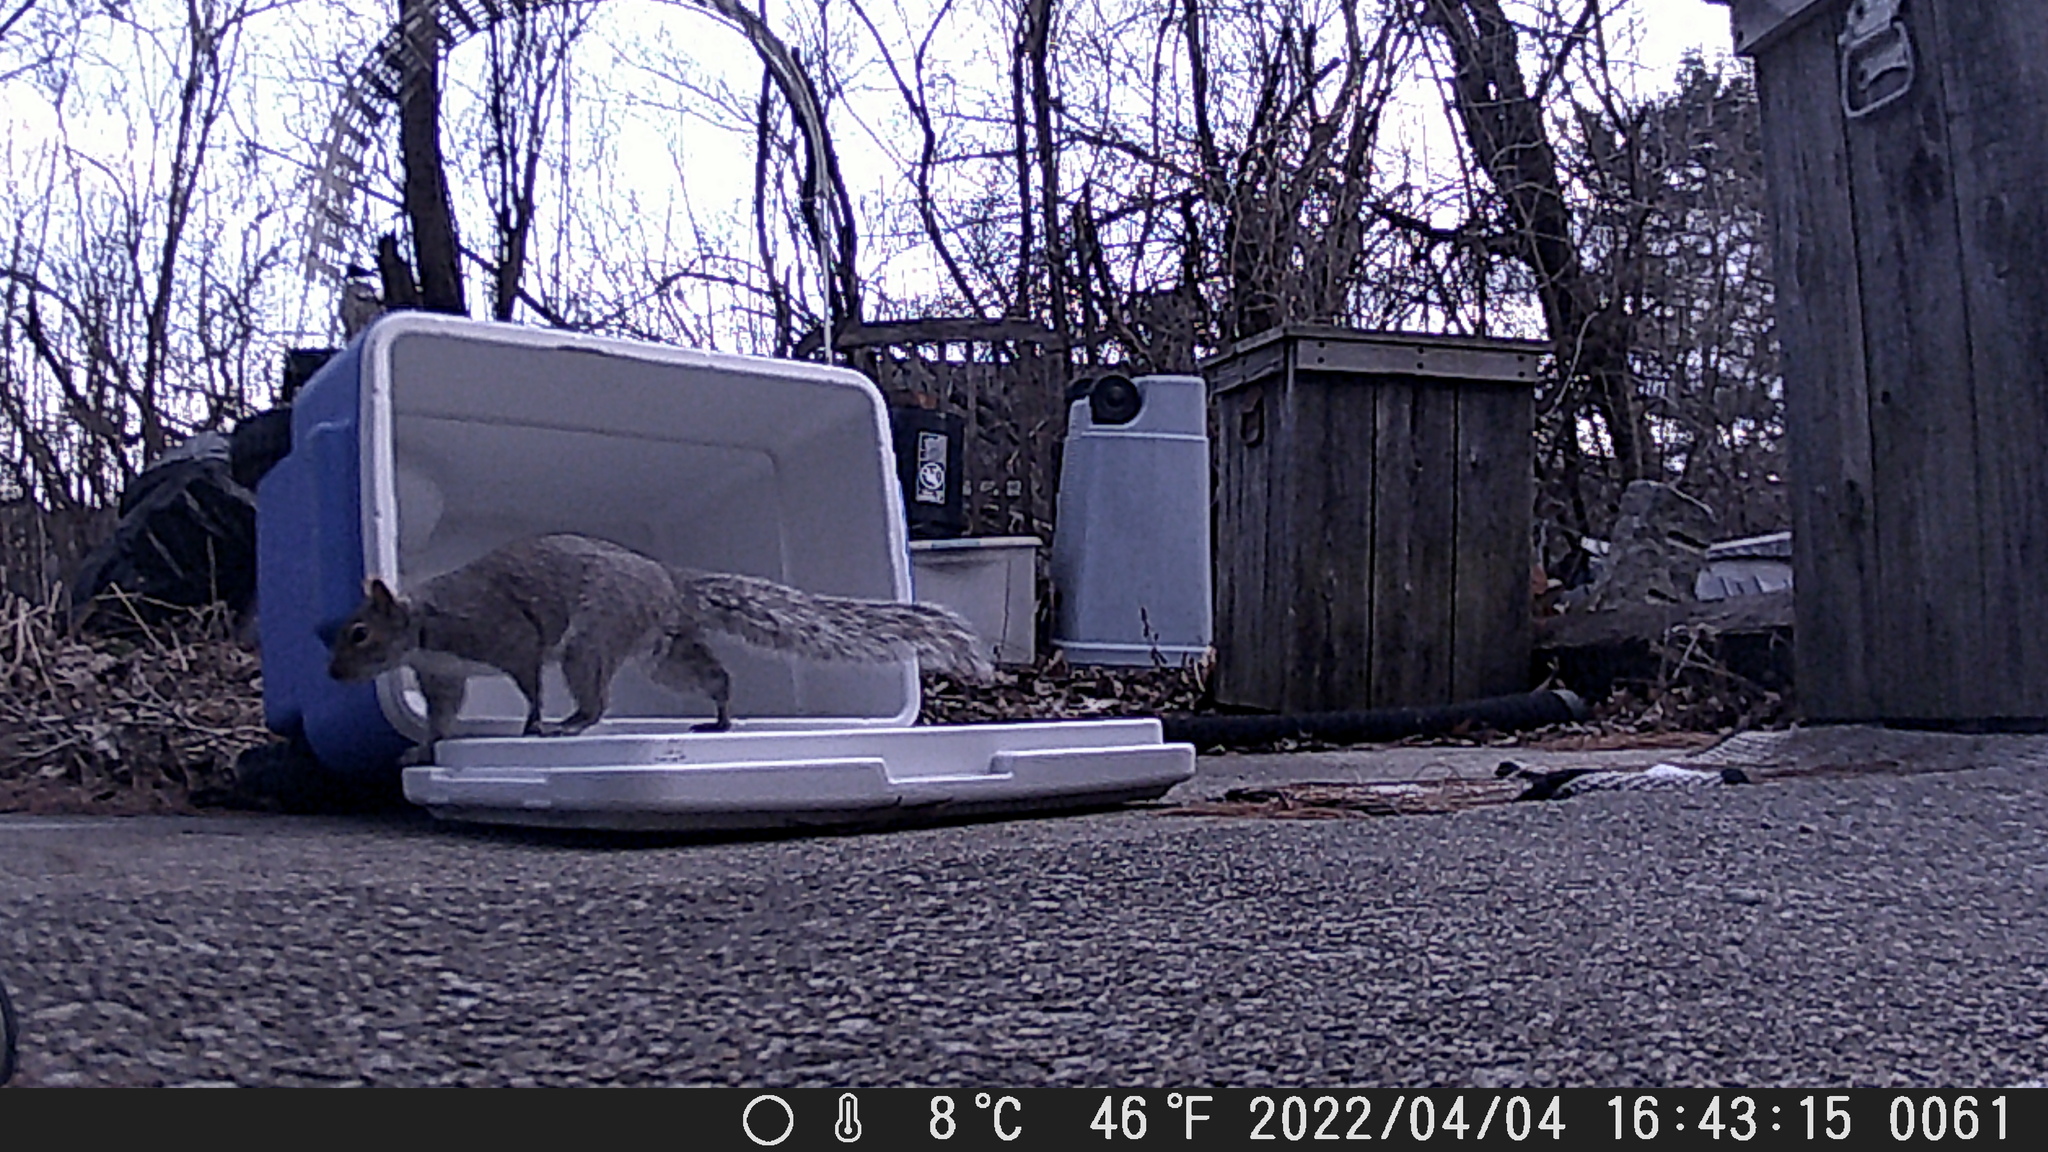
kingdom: Animalia
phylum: Chordata
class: Mammalia
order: Rodentia
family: Sciuridae
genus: Sciurus
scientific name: Sciurus carolinensis
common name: Eastern gray squirrel
